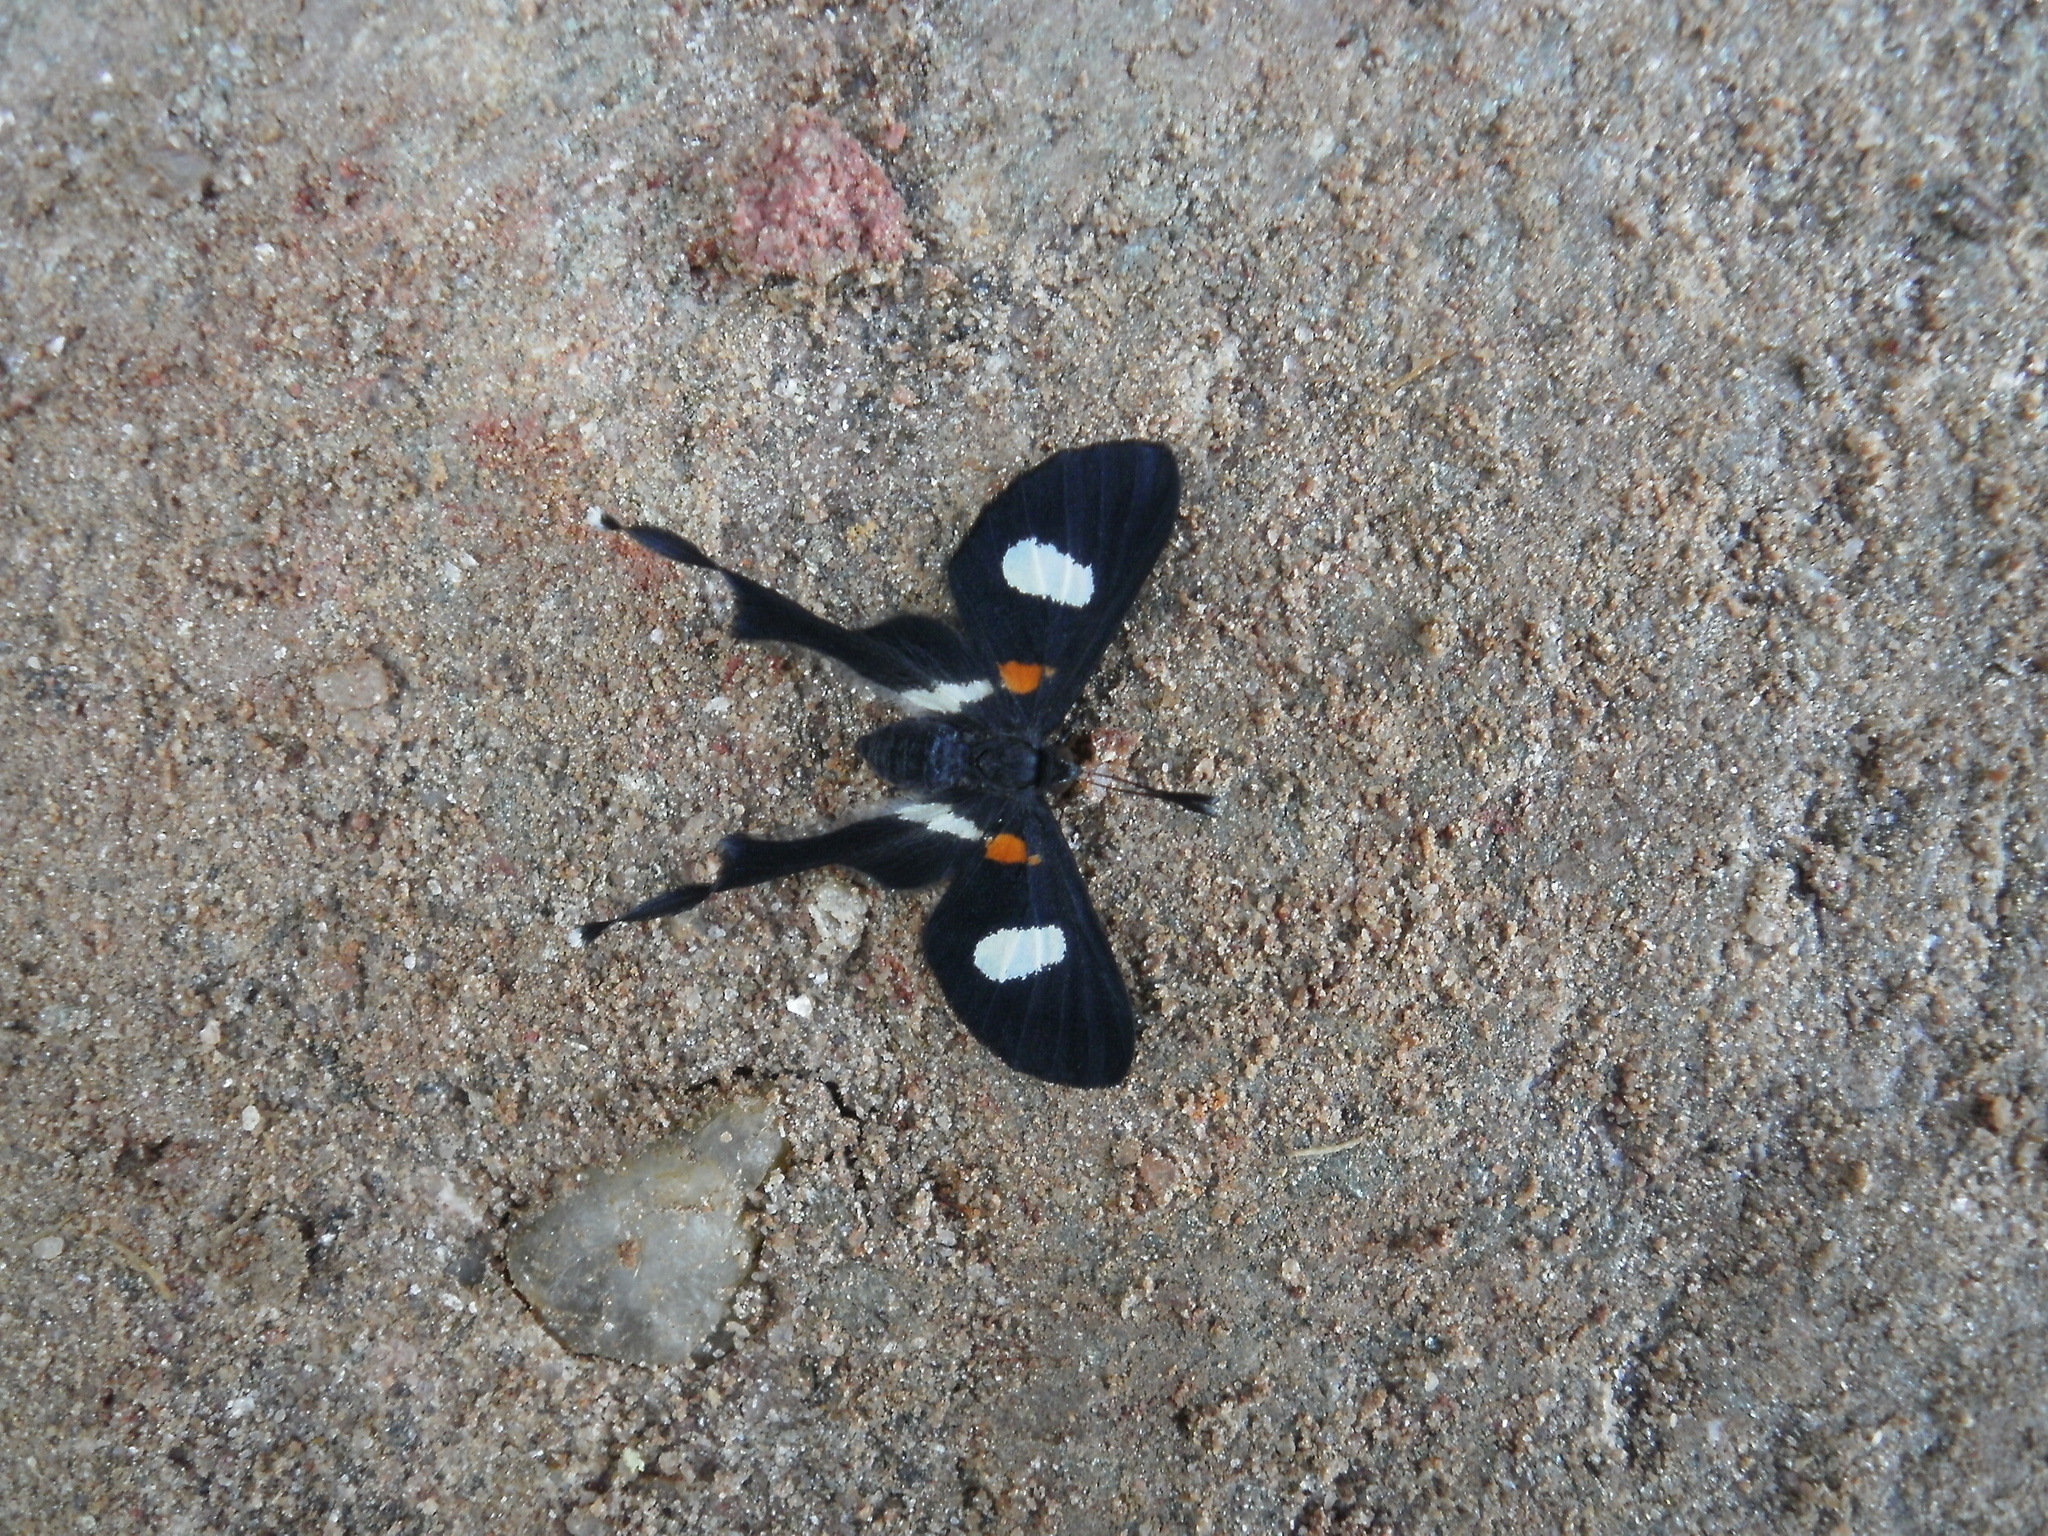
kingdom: Animalia
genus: Syrmatia
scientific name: Syrmatia nyx
